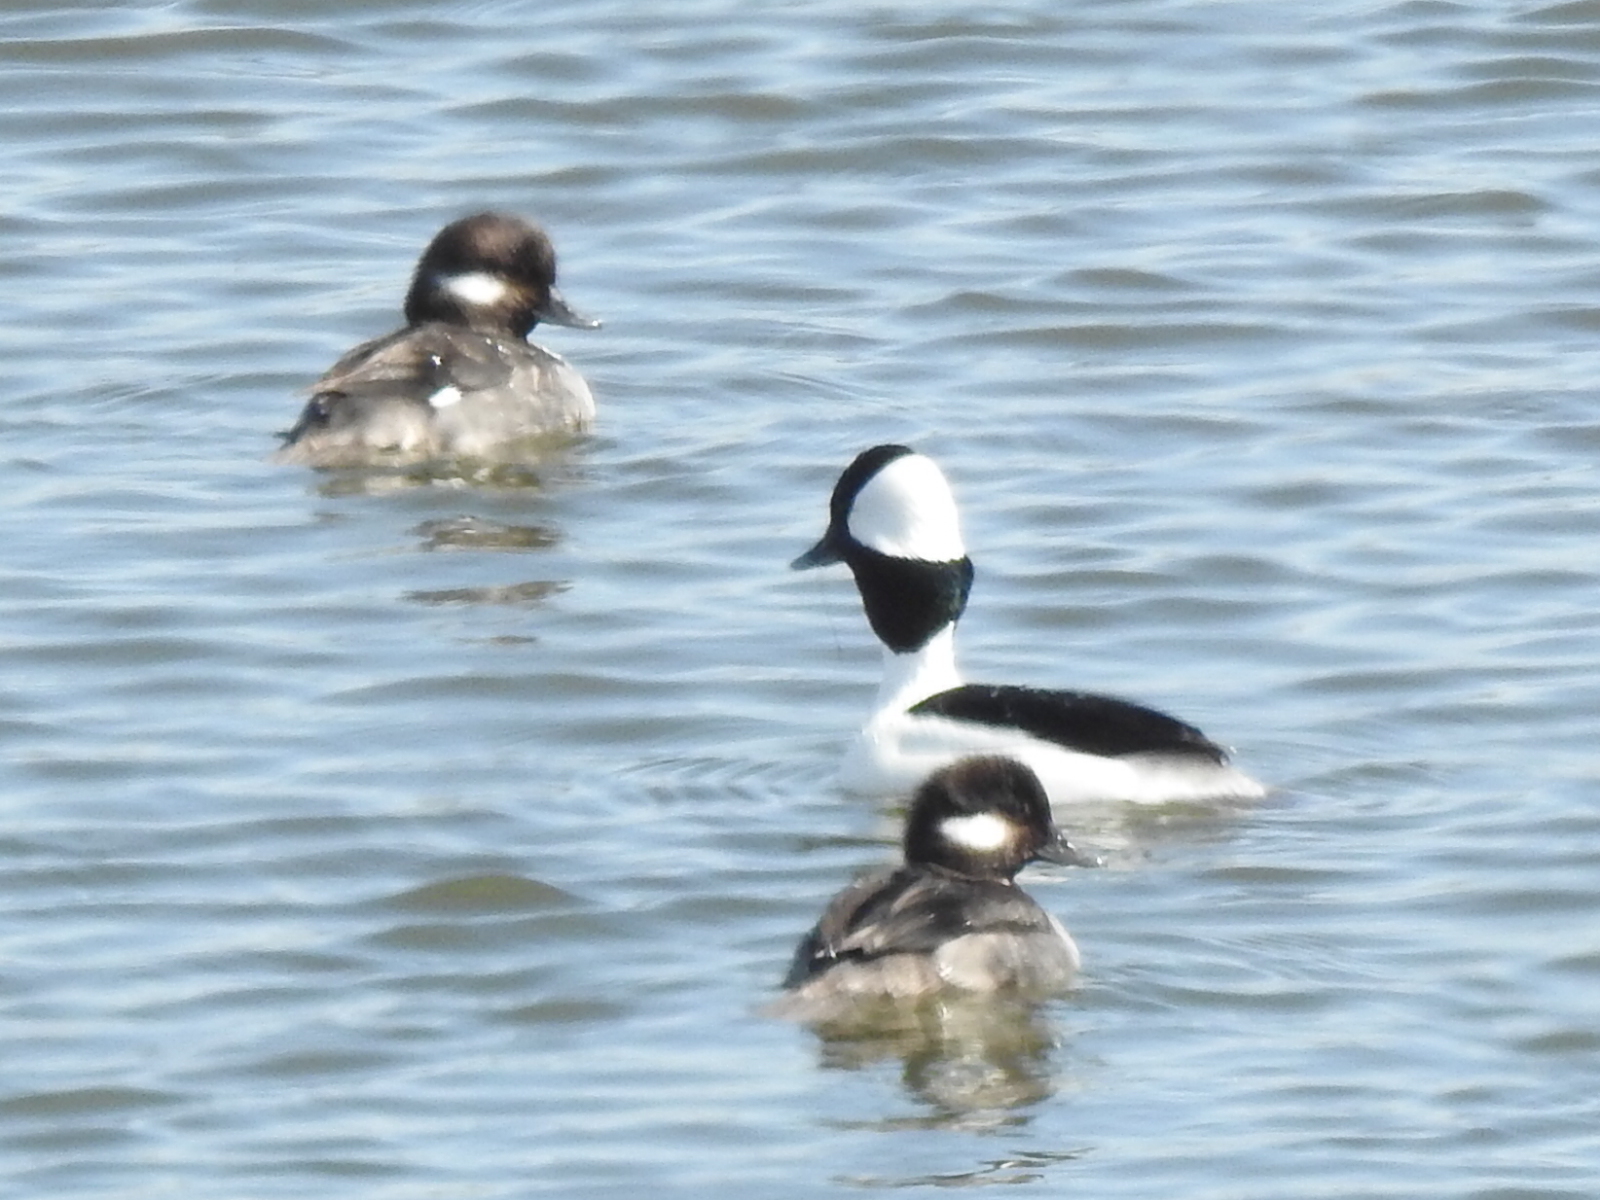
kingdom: Animalia
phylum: Chordata
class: Aves
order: Anseriformes
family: Anatidae
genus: Bucephala
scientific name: Bucephala albeola
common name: Bufflehead
